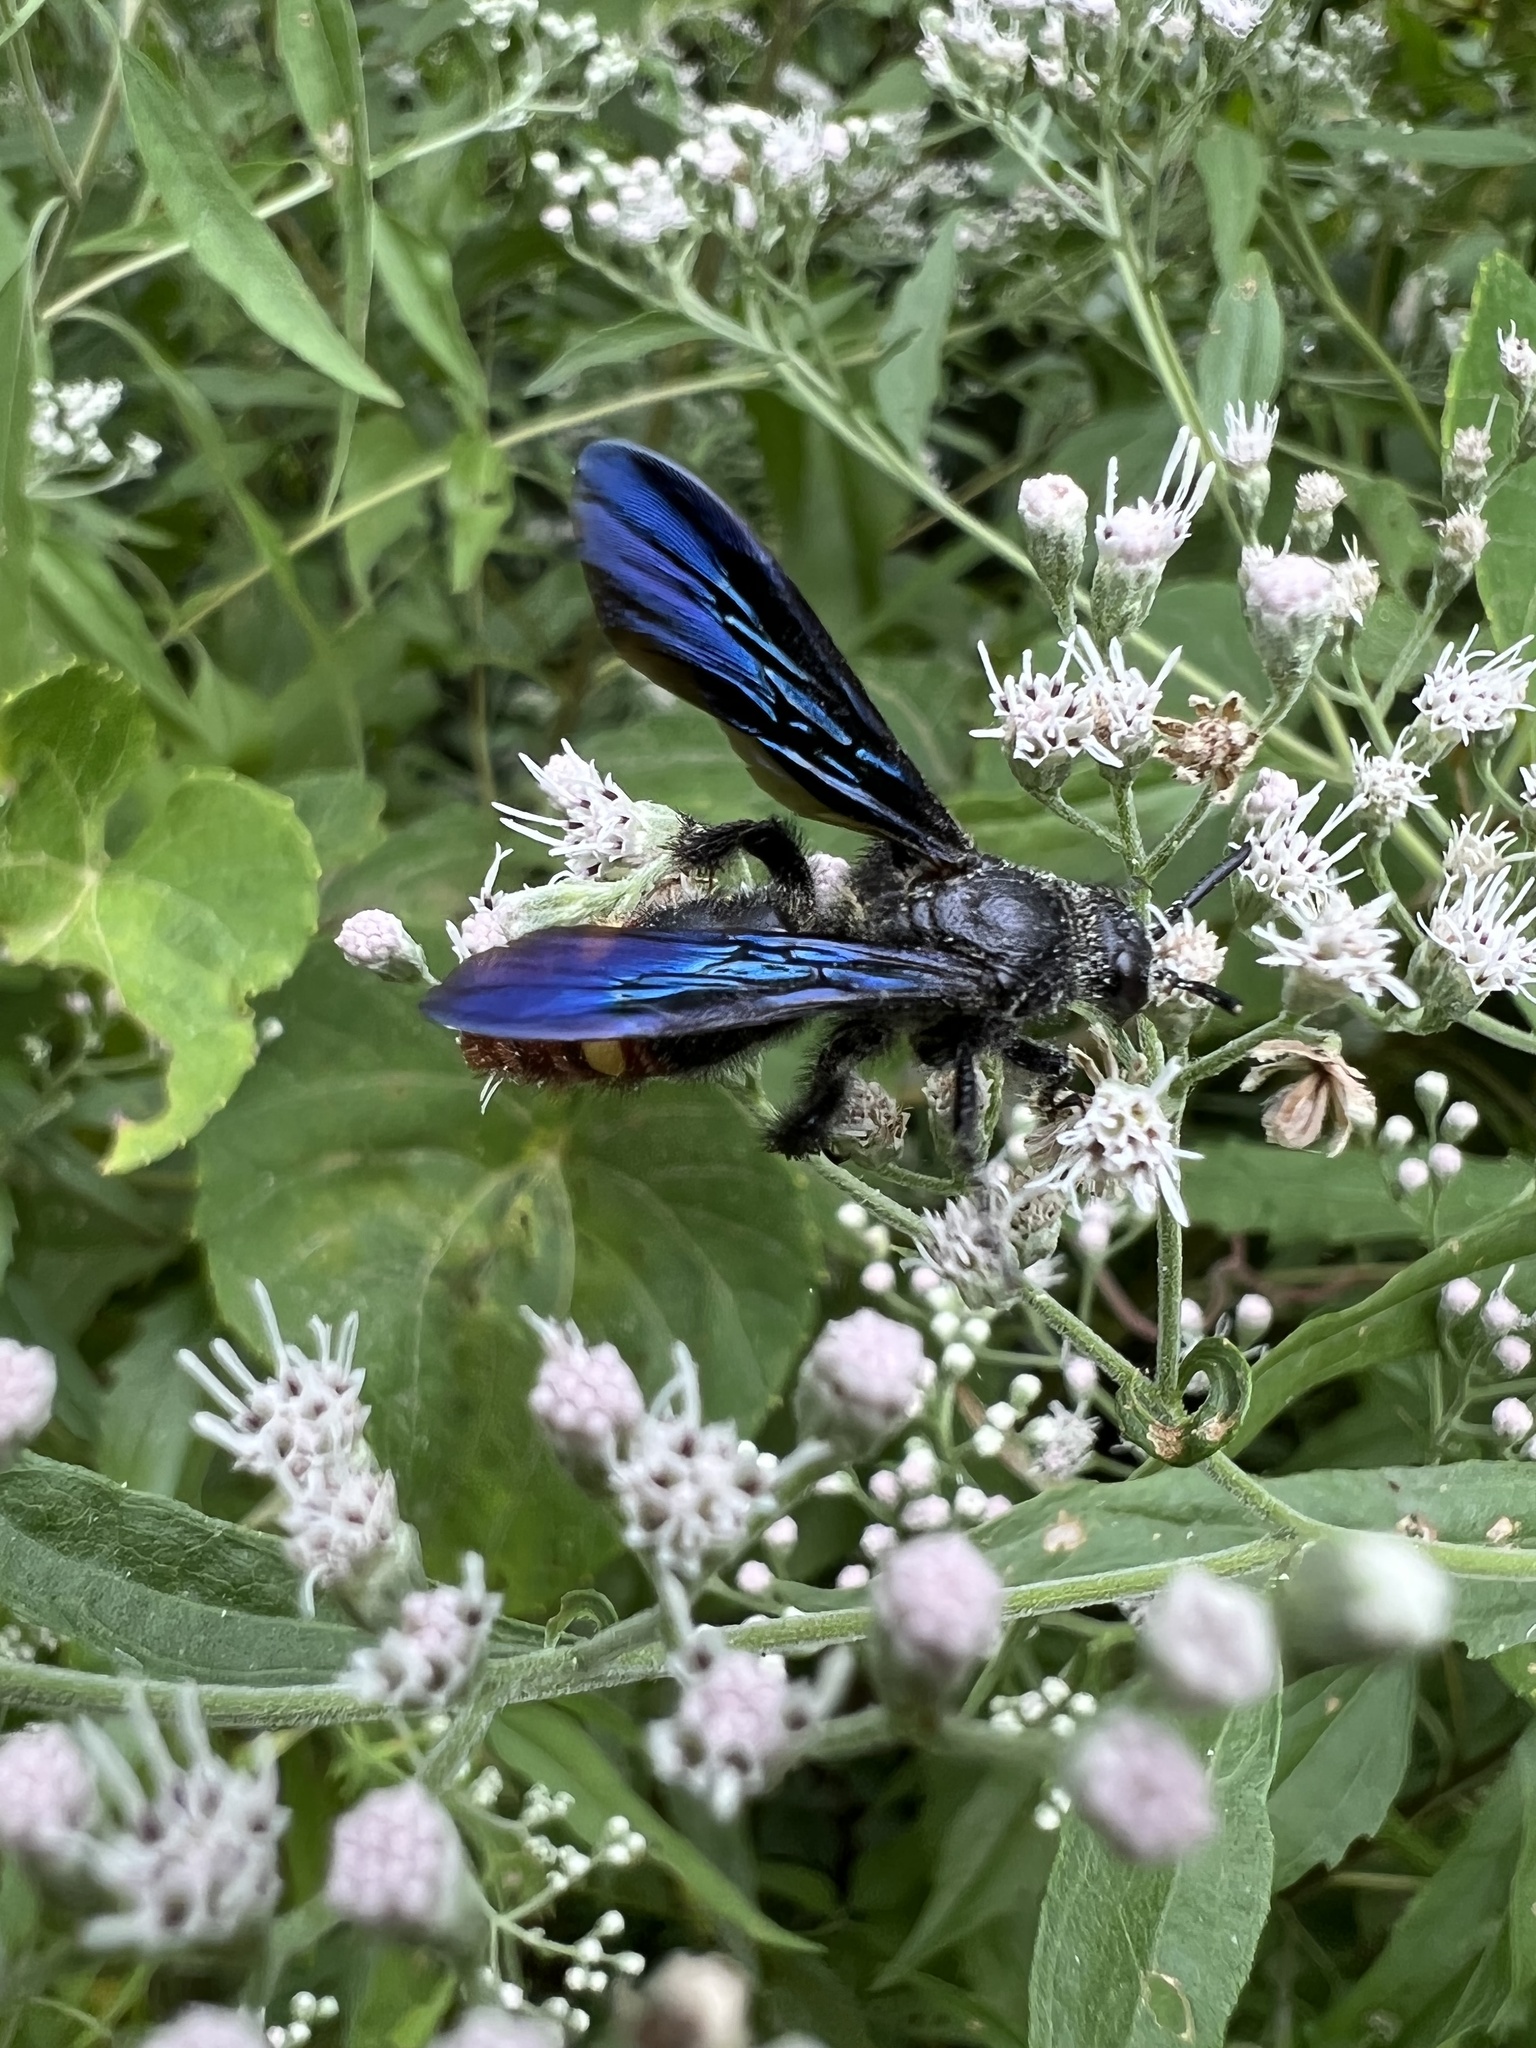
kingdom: Animalia
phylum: Arthropoda
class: Insecta
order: Hymenoptera
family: Scoliidae
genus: Scolia
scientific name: Scolia dubia
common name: Blue-winged scoliid wasp
